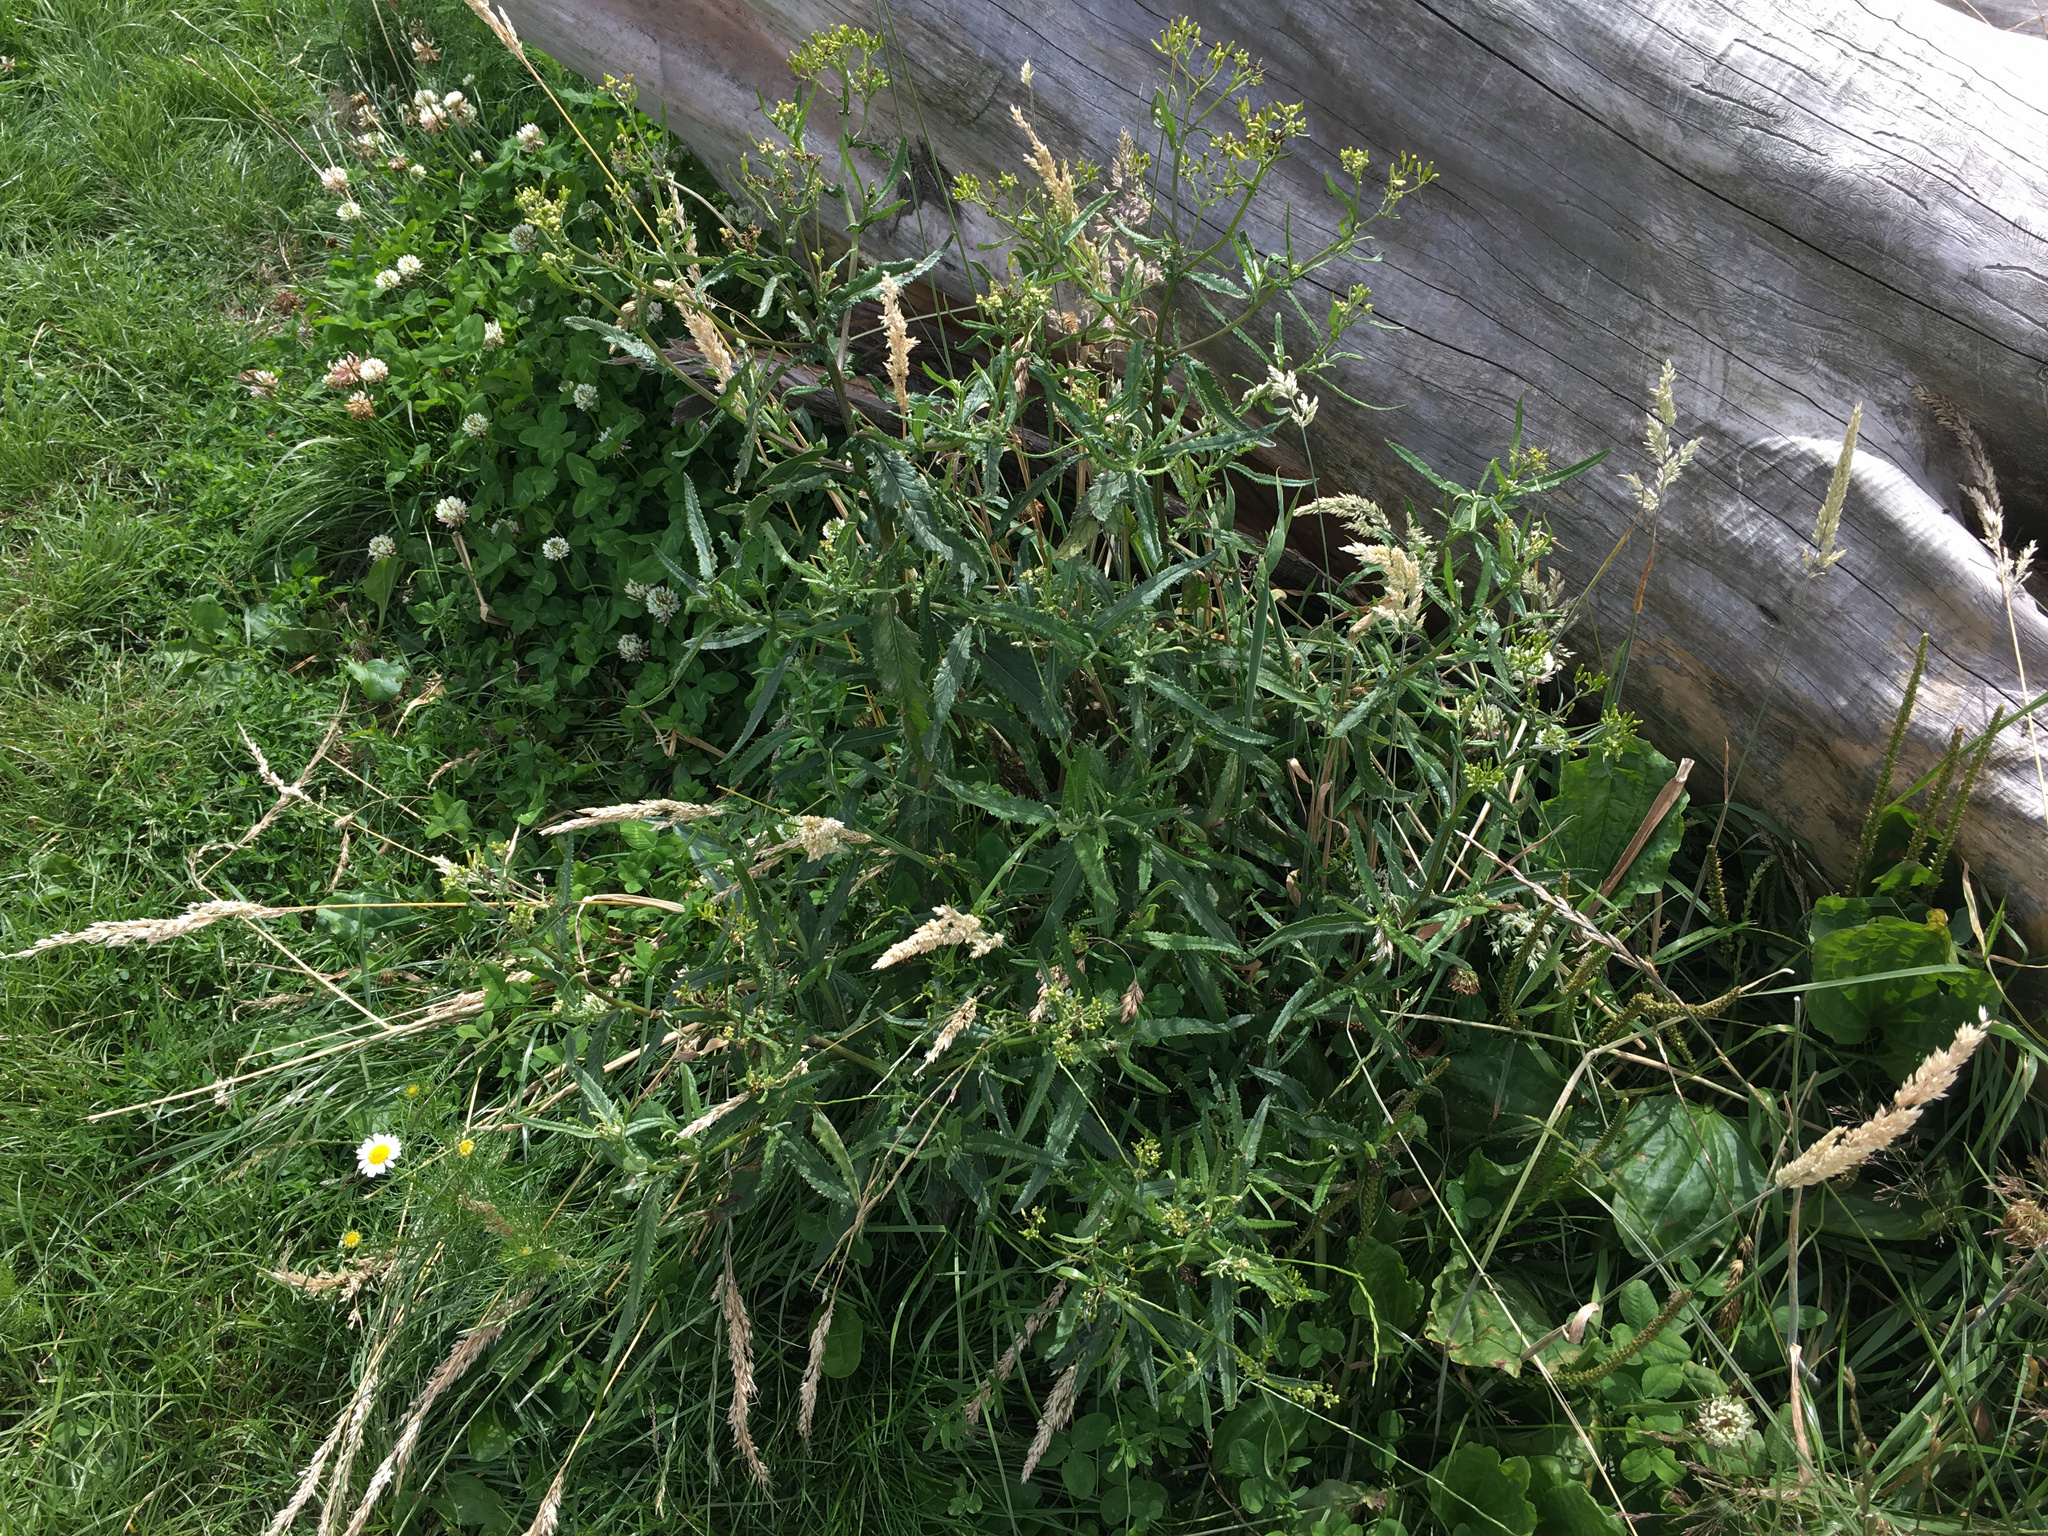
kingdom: Plantae
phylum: Tracheophyta
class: Magnoliopsida
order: Asterales
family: Asteraceae
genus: Senecio
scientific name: Senecio minimus
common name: Toothed fireweed
